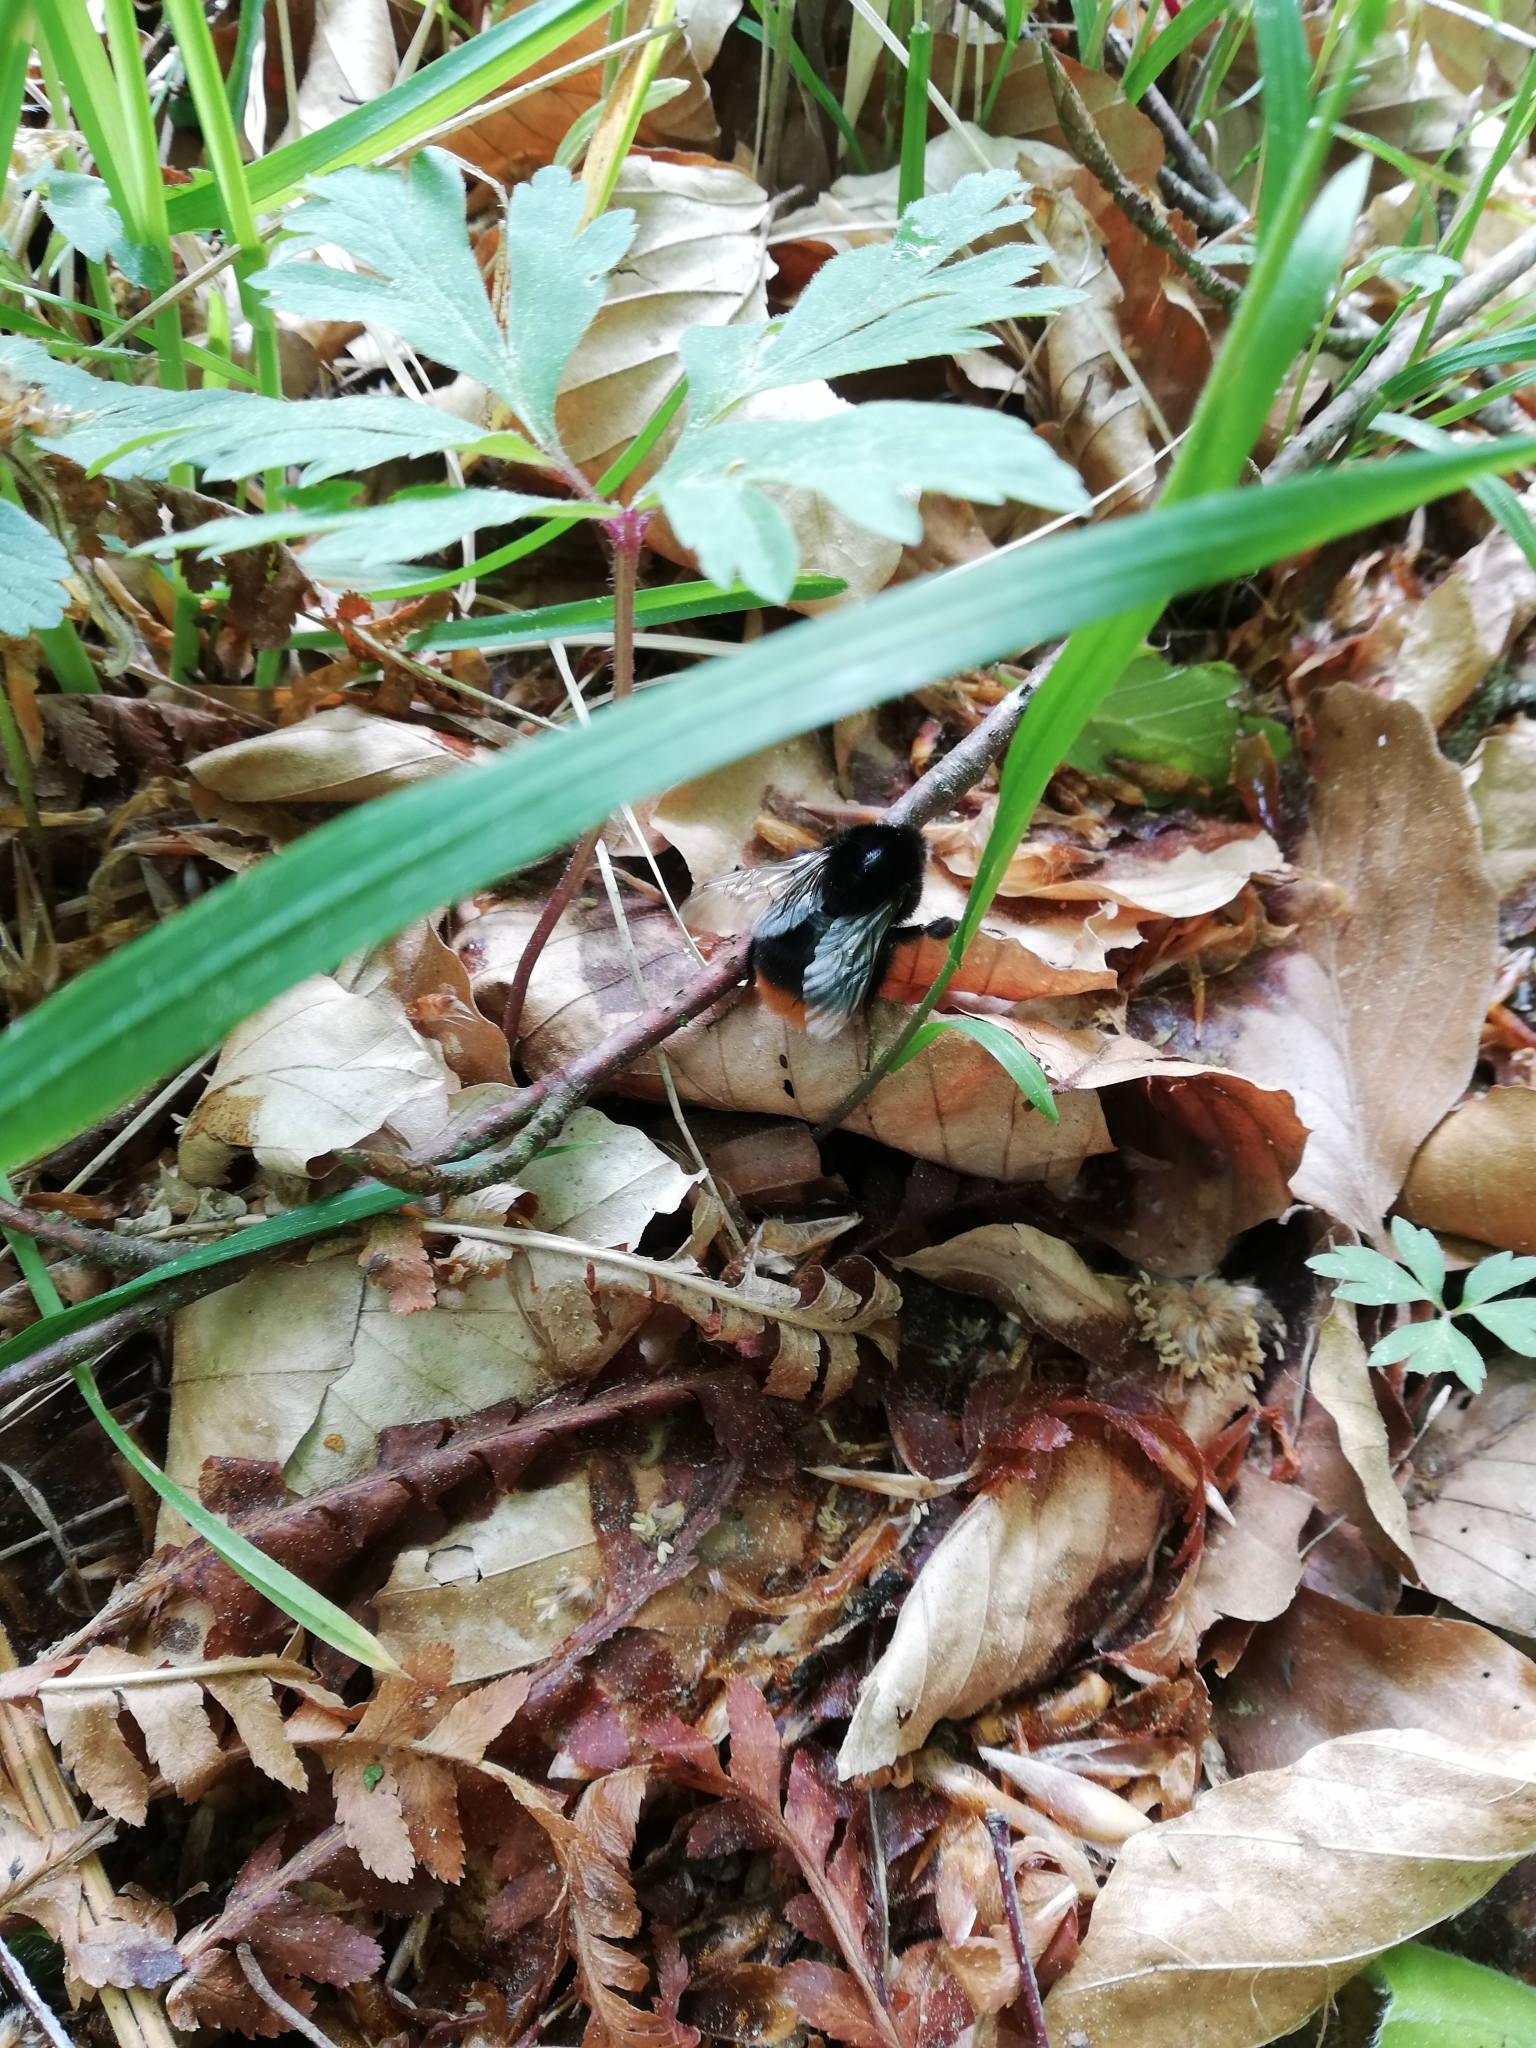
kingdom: Animalia
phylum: Arthropoda
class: Insecta
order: Hymenoptera
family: Apidae
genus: Bombus
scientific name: Bombus lapidarius
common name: Large red-tailed humble-bee
